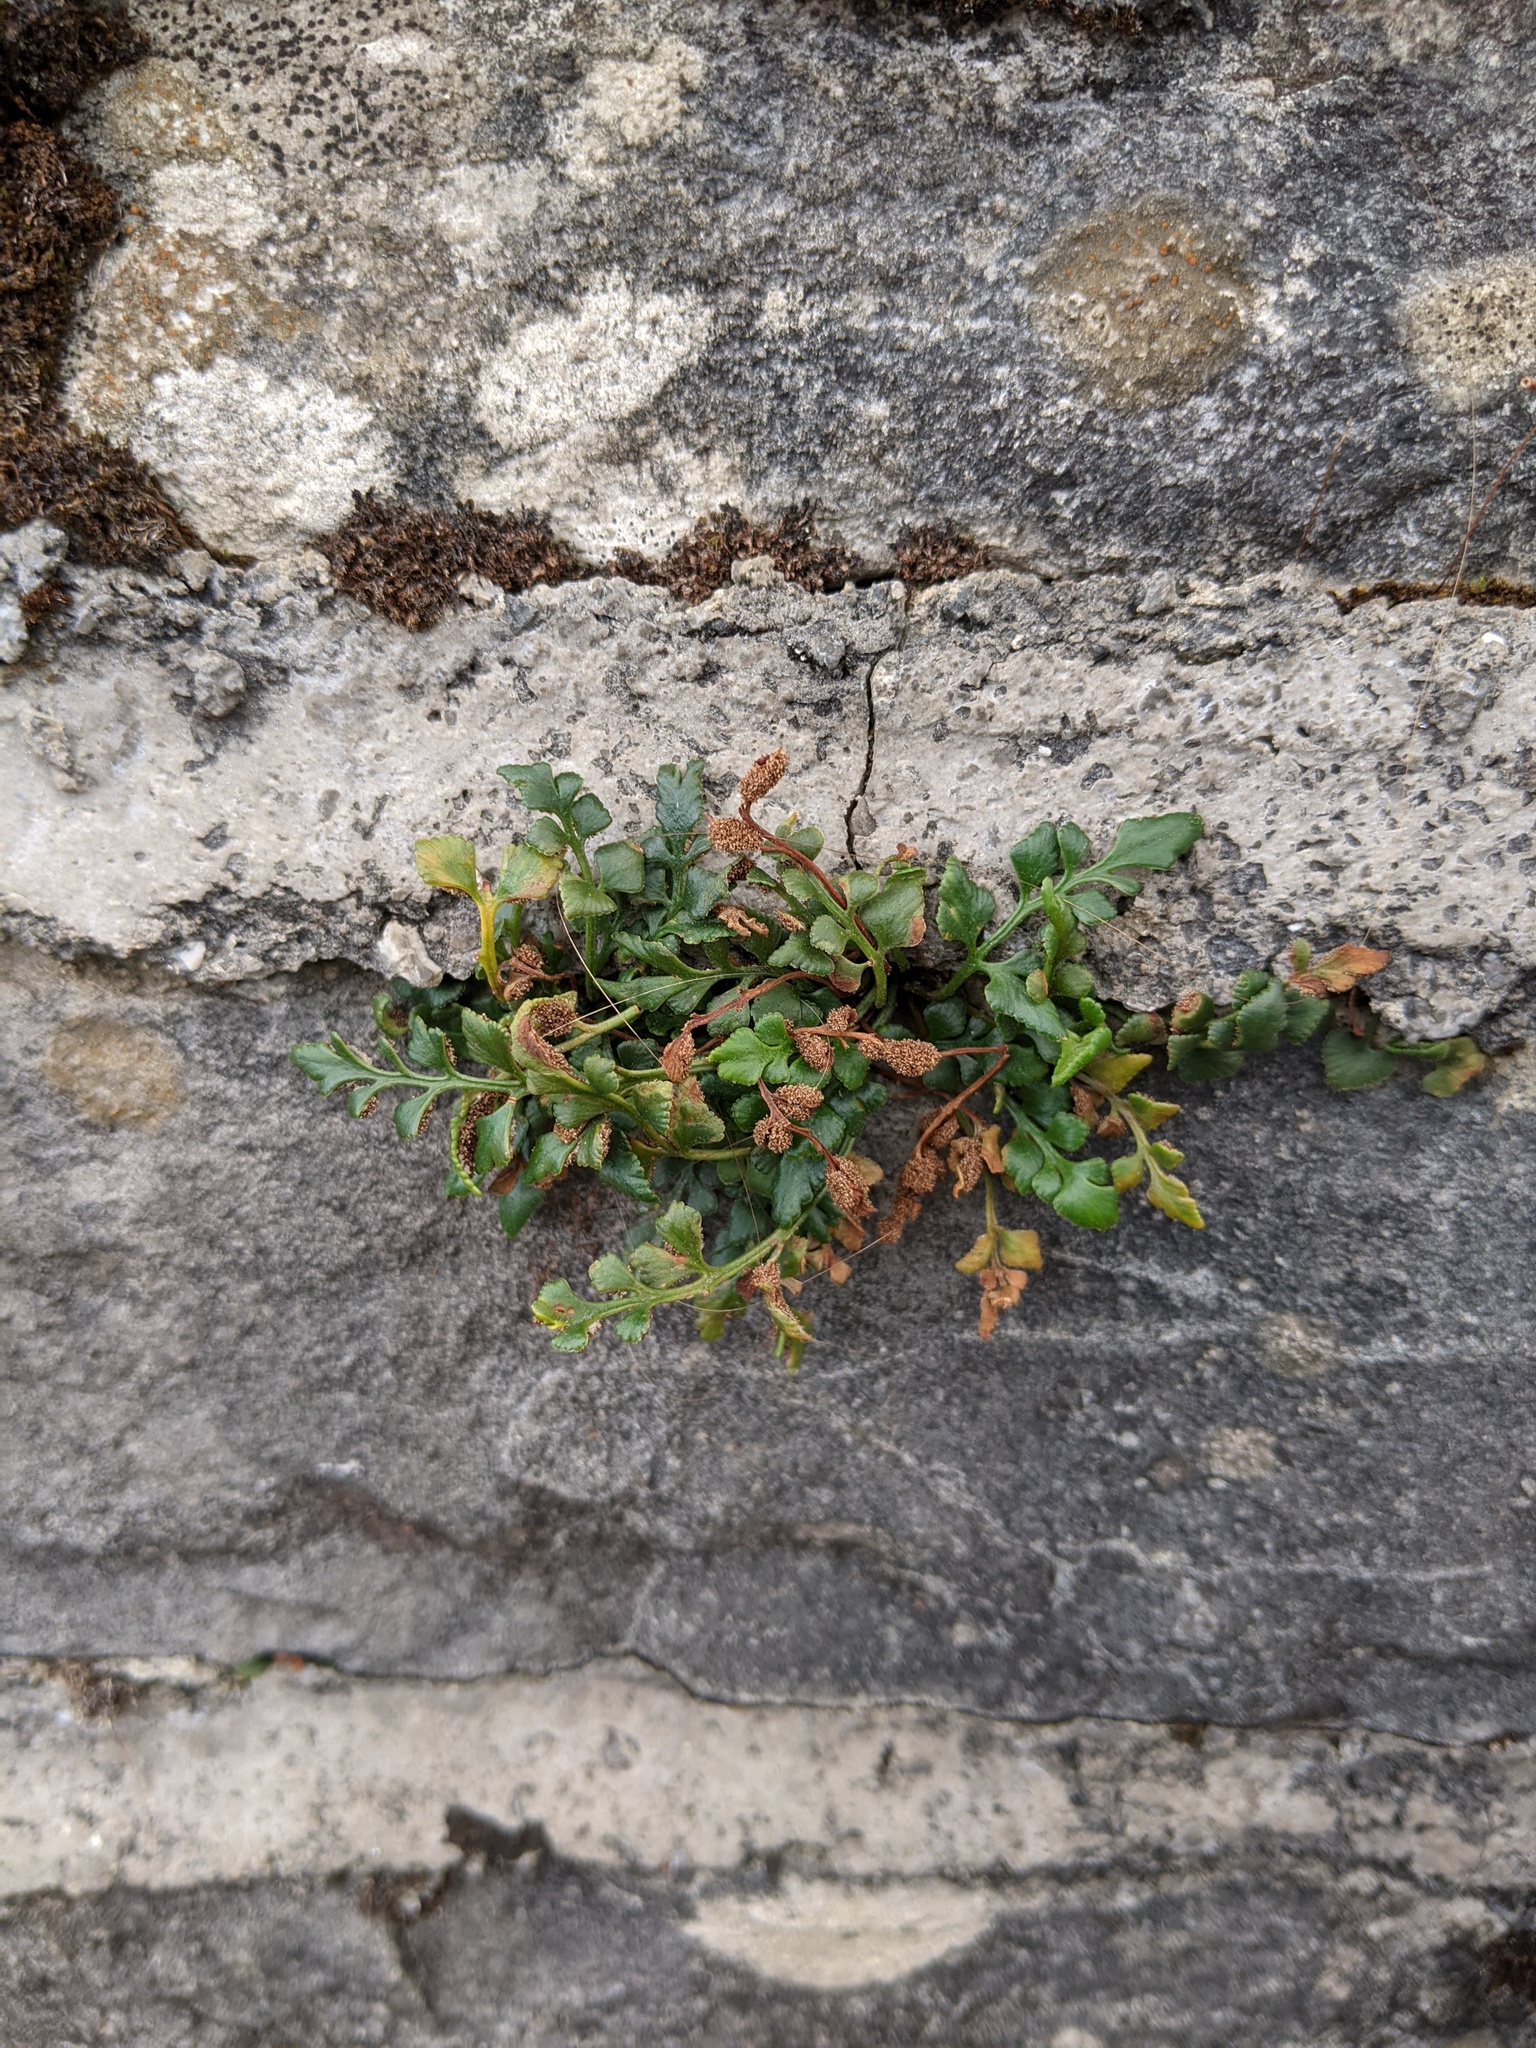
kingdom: Plantae
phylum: Tracheophyta
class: Polypodiopsida
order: Polypodiales
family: Aspleniaceae
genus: Asplenium
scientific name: Asplenium ruta-muraria
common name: Wall-rue
